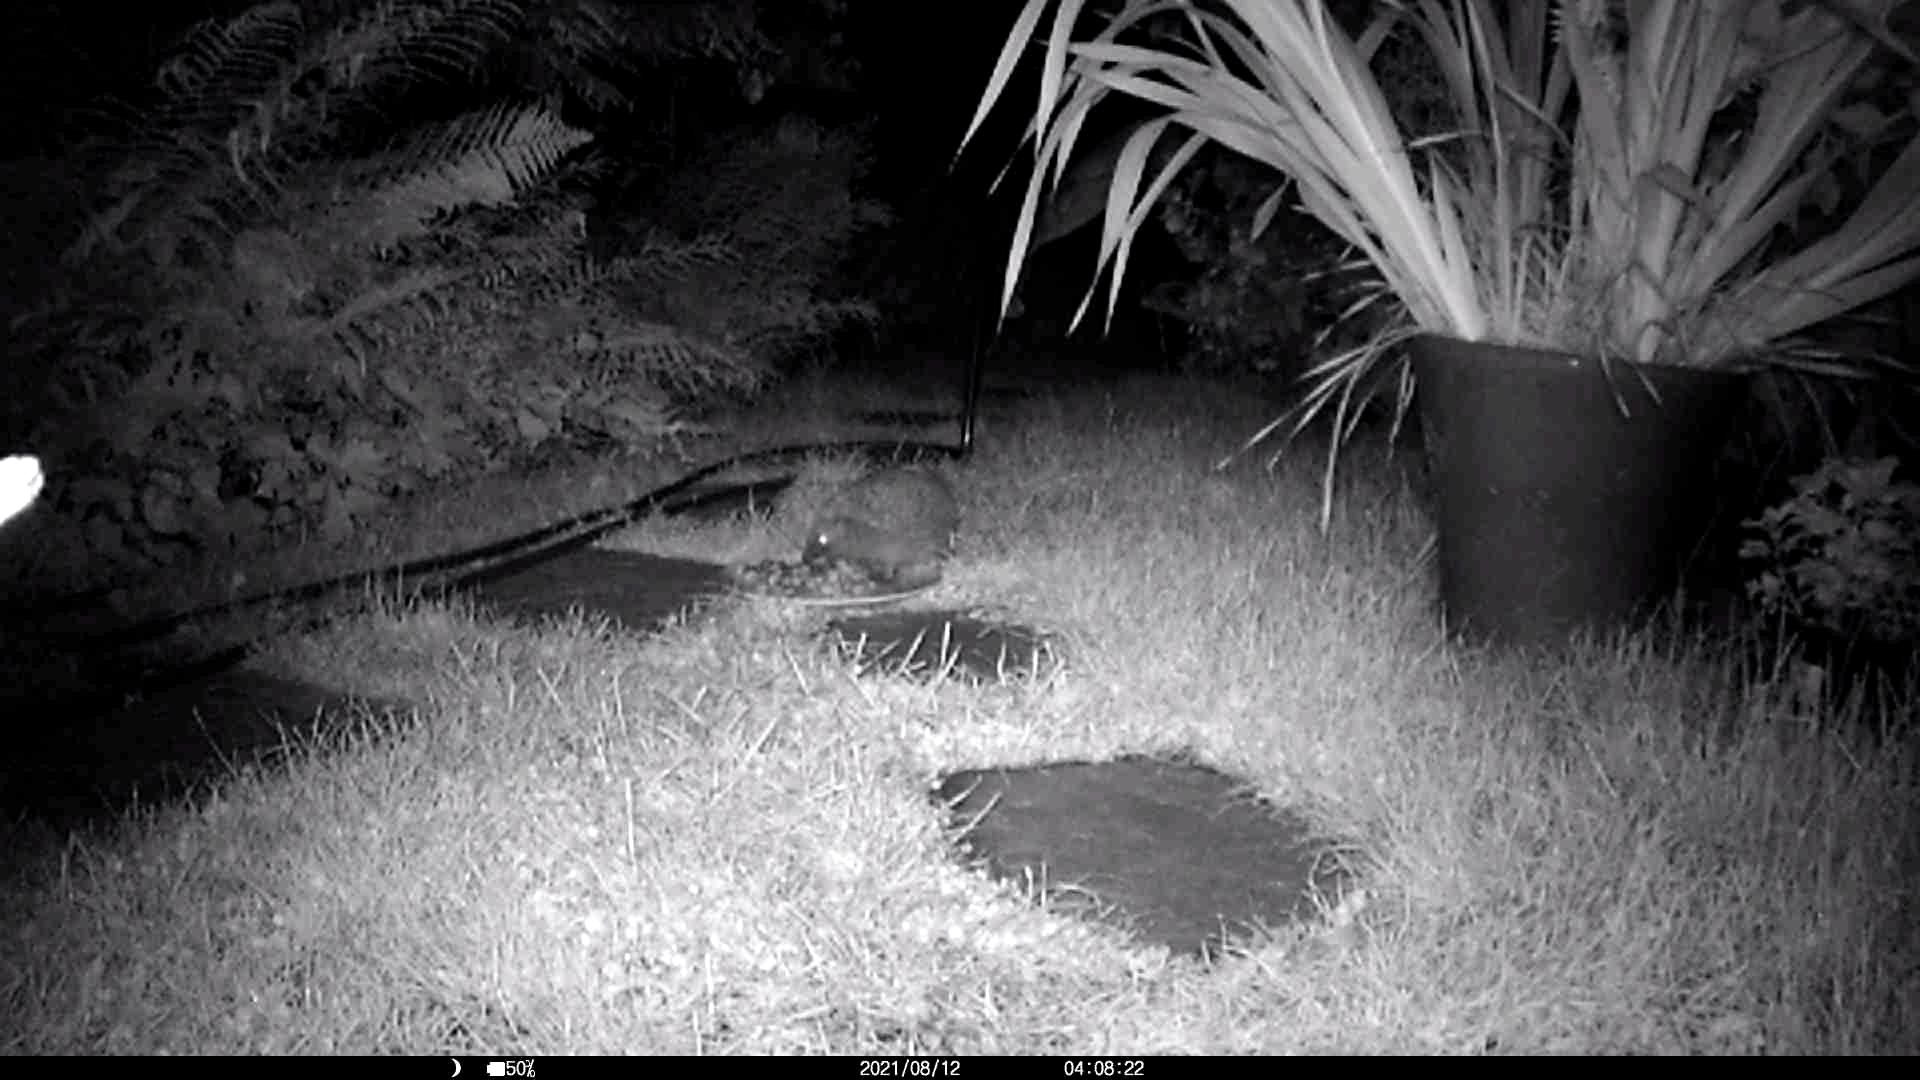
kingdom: Animalia
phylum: Chordata
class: Mammalia
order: Erinaceomorpha
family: Erinaceidae
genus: Erinaceus
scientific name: Erinaceus europaeus
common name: West european hedgehog
